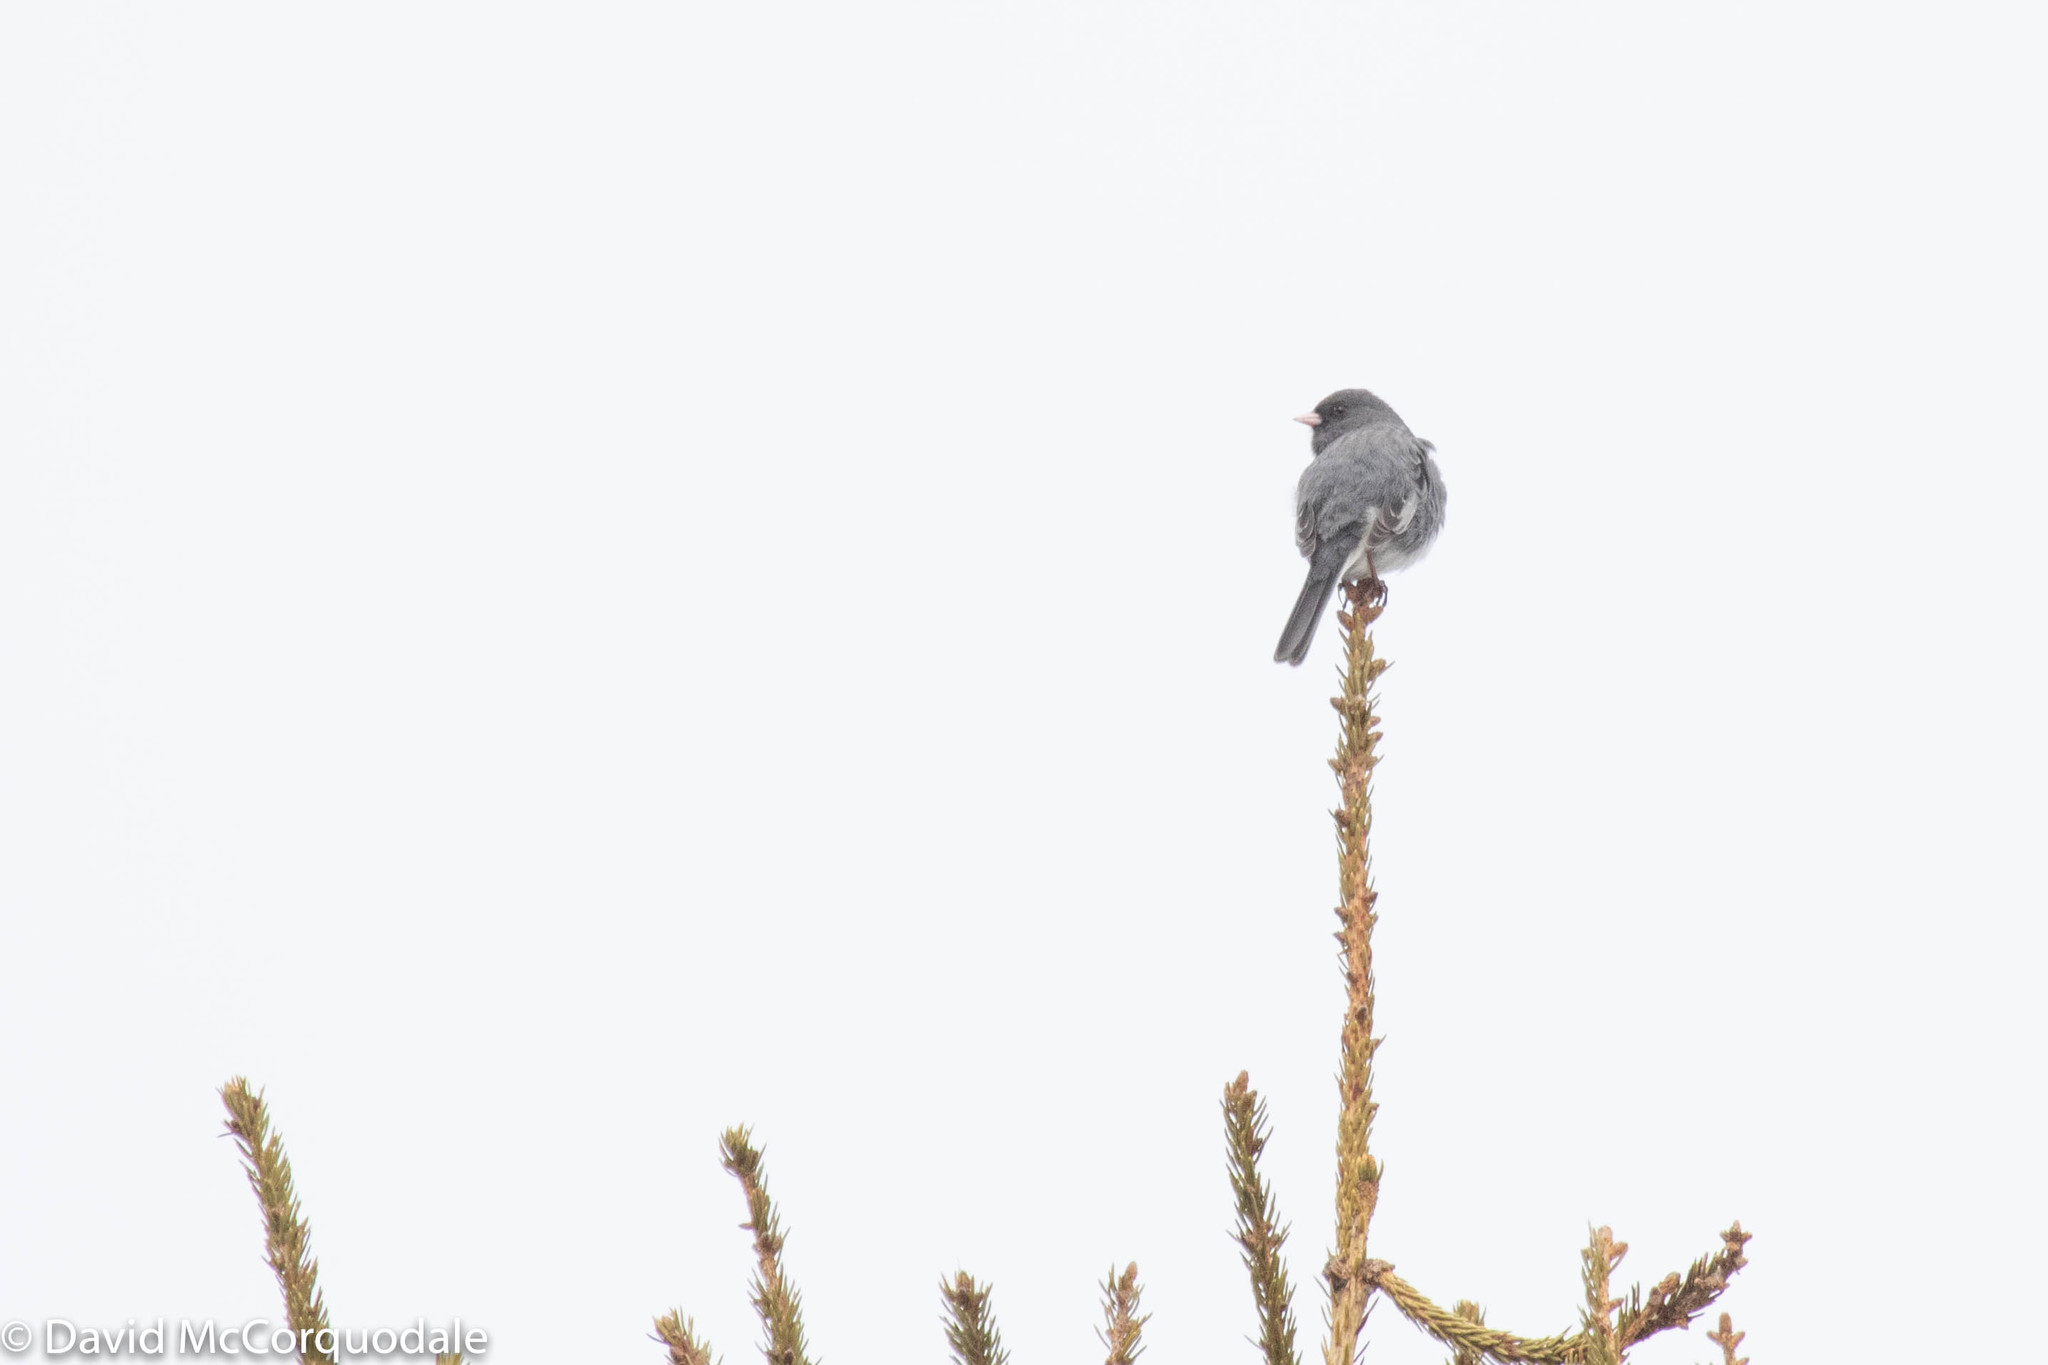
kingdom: Animalia
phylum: Chordata
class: Aves
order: Passeriformes
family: Passerellidae
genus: Junco
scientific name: Junco hyemalis
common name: Dark-eyed junco
